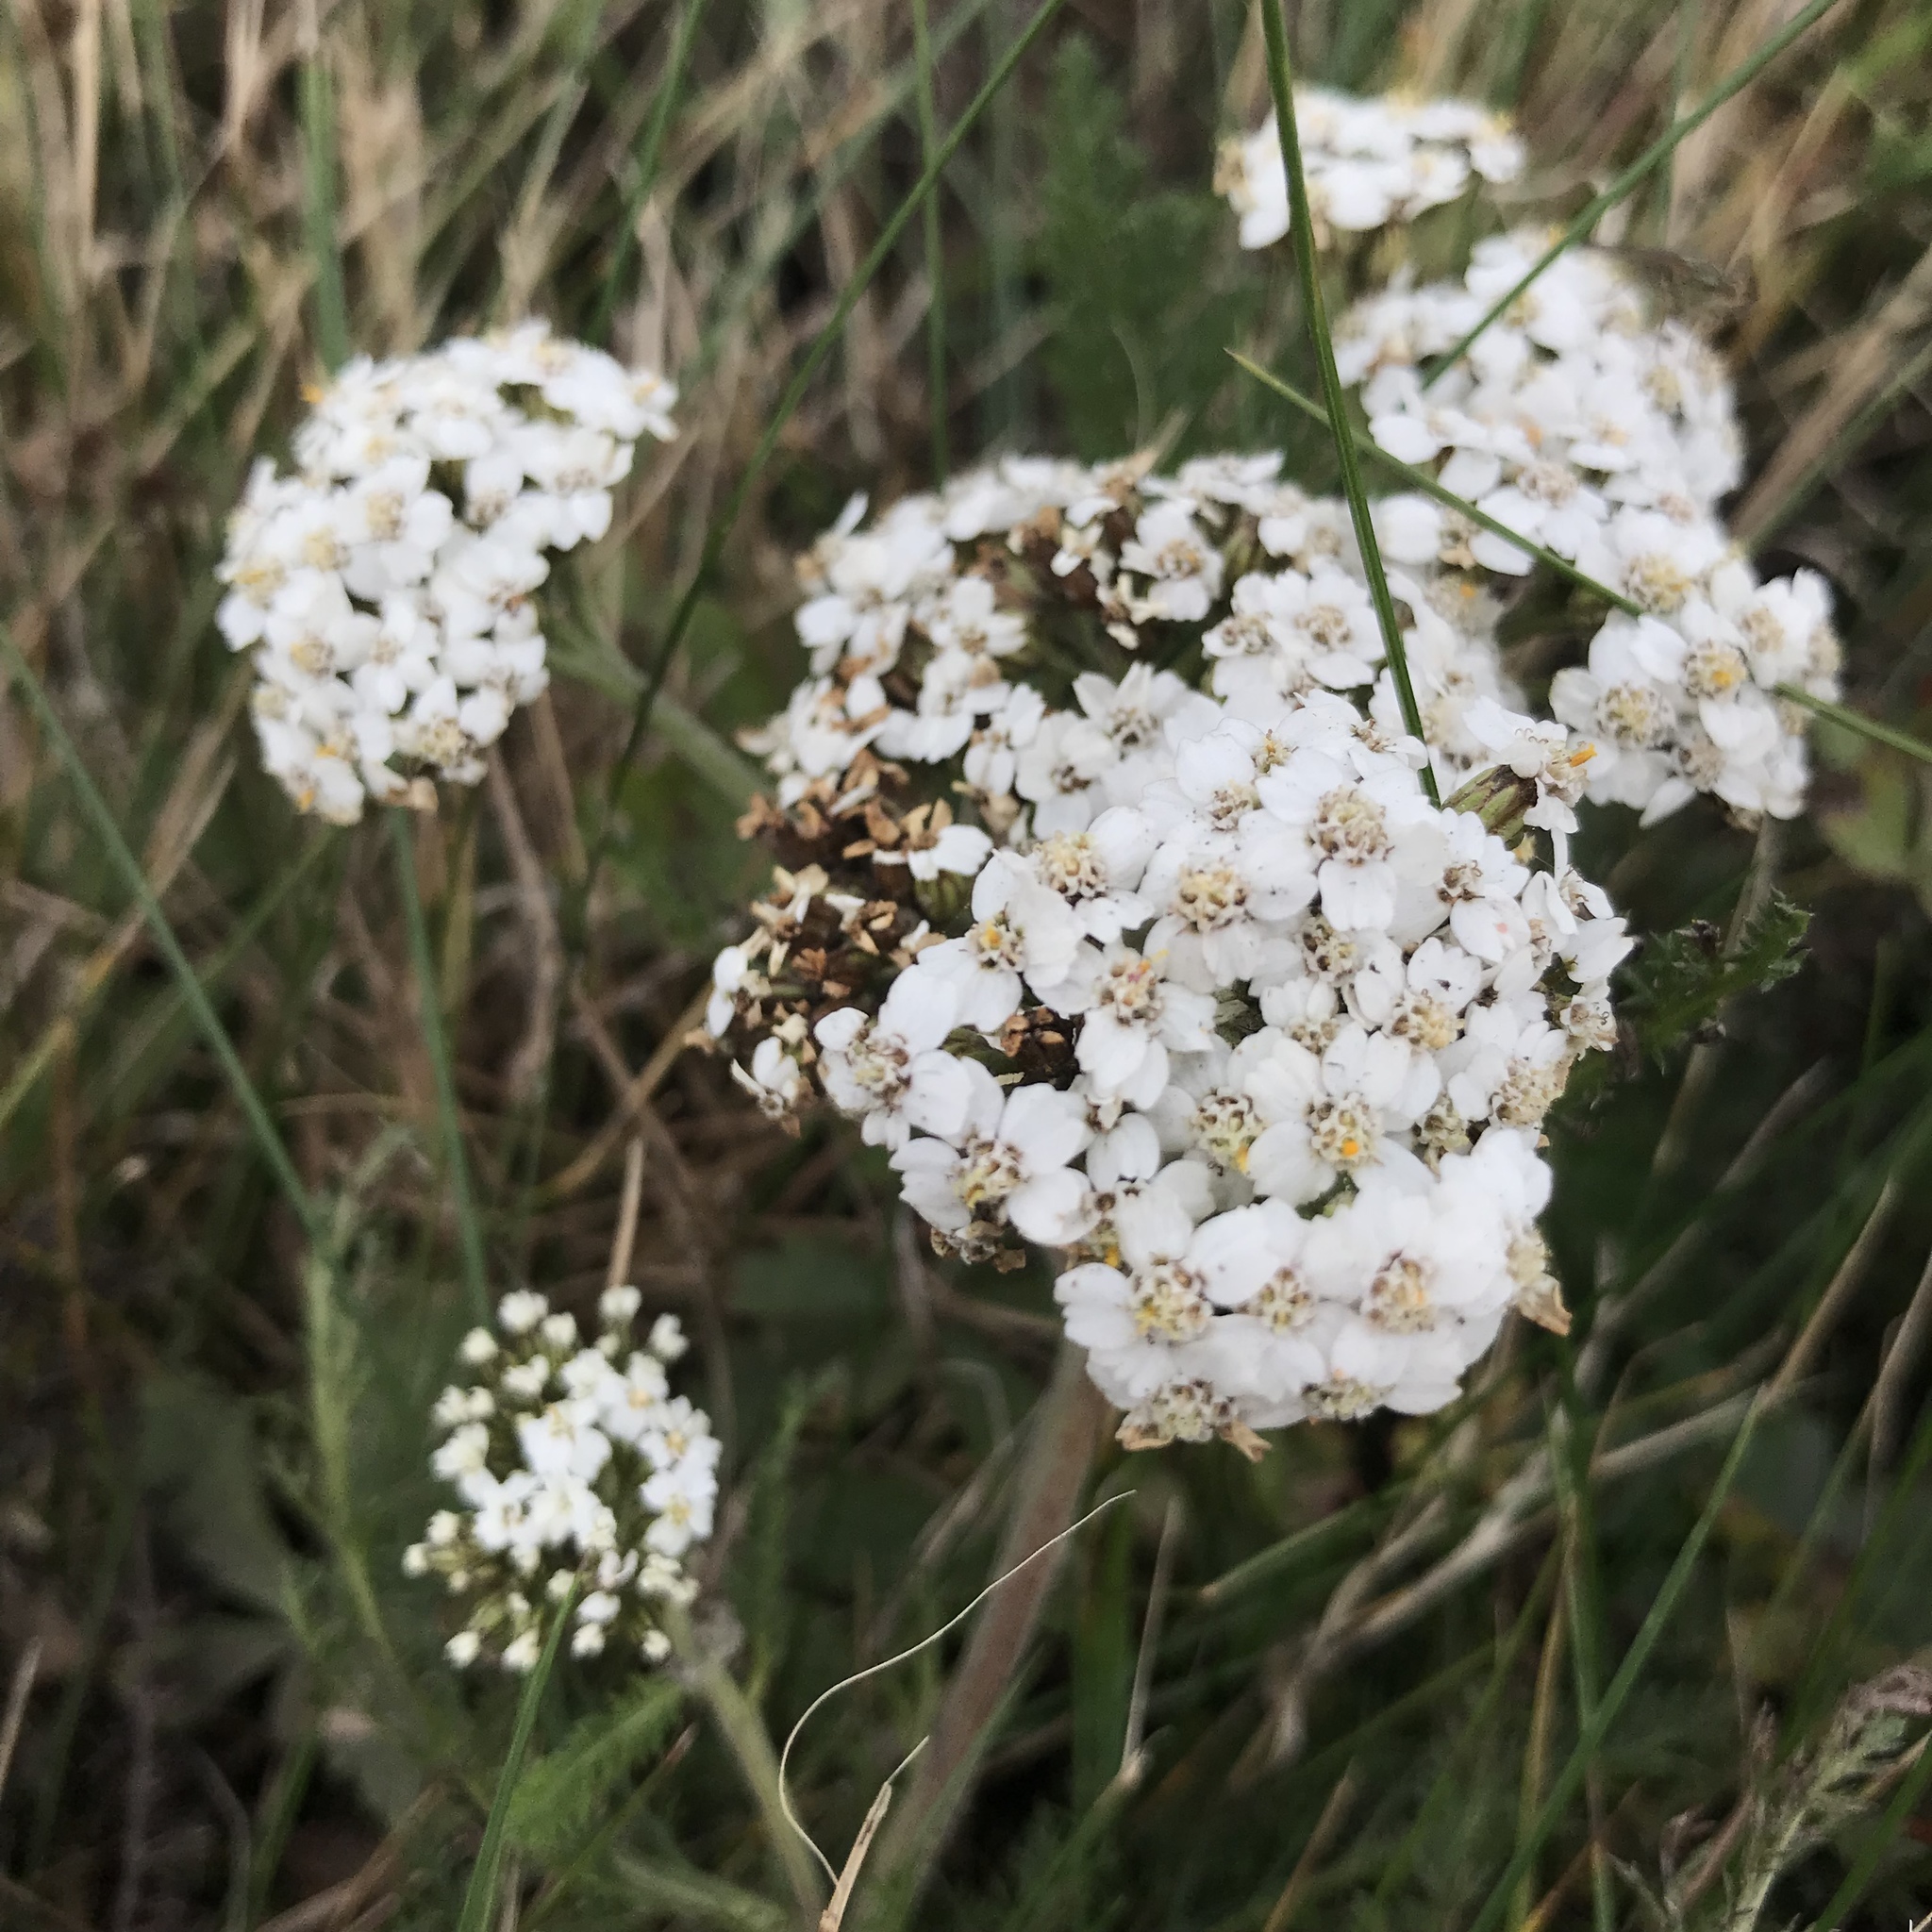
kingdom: Plantae
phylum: Tracheophyta
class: Magnoliopsida
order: Asterales
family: Asteraceae
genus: Achillea
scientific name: Achillea millefolium
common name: Yarrow
